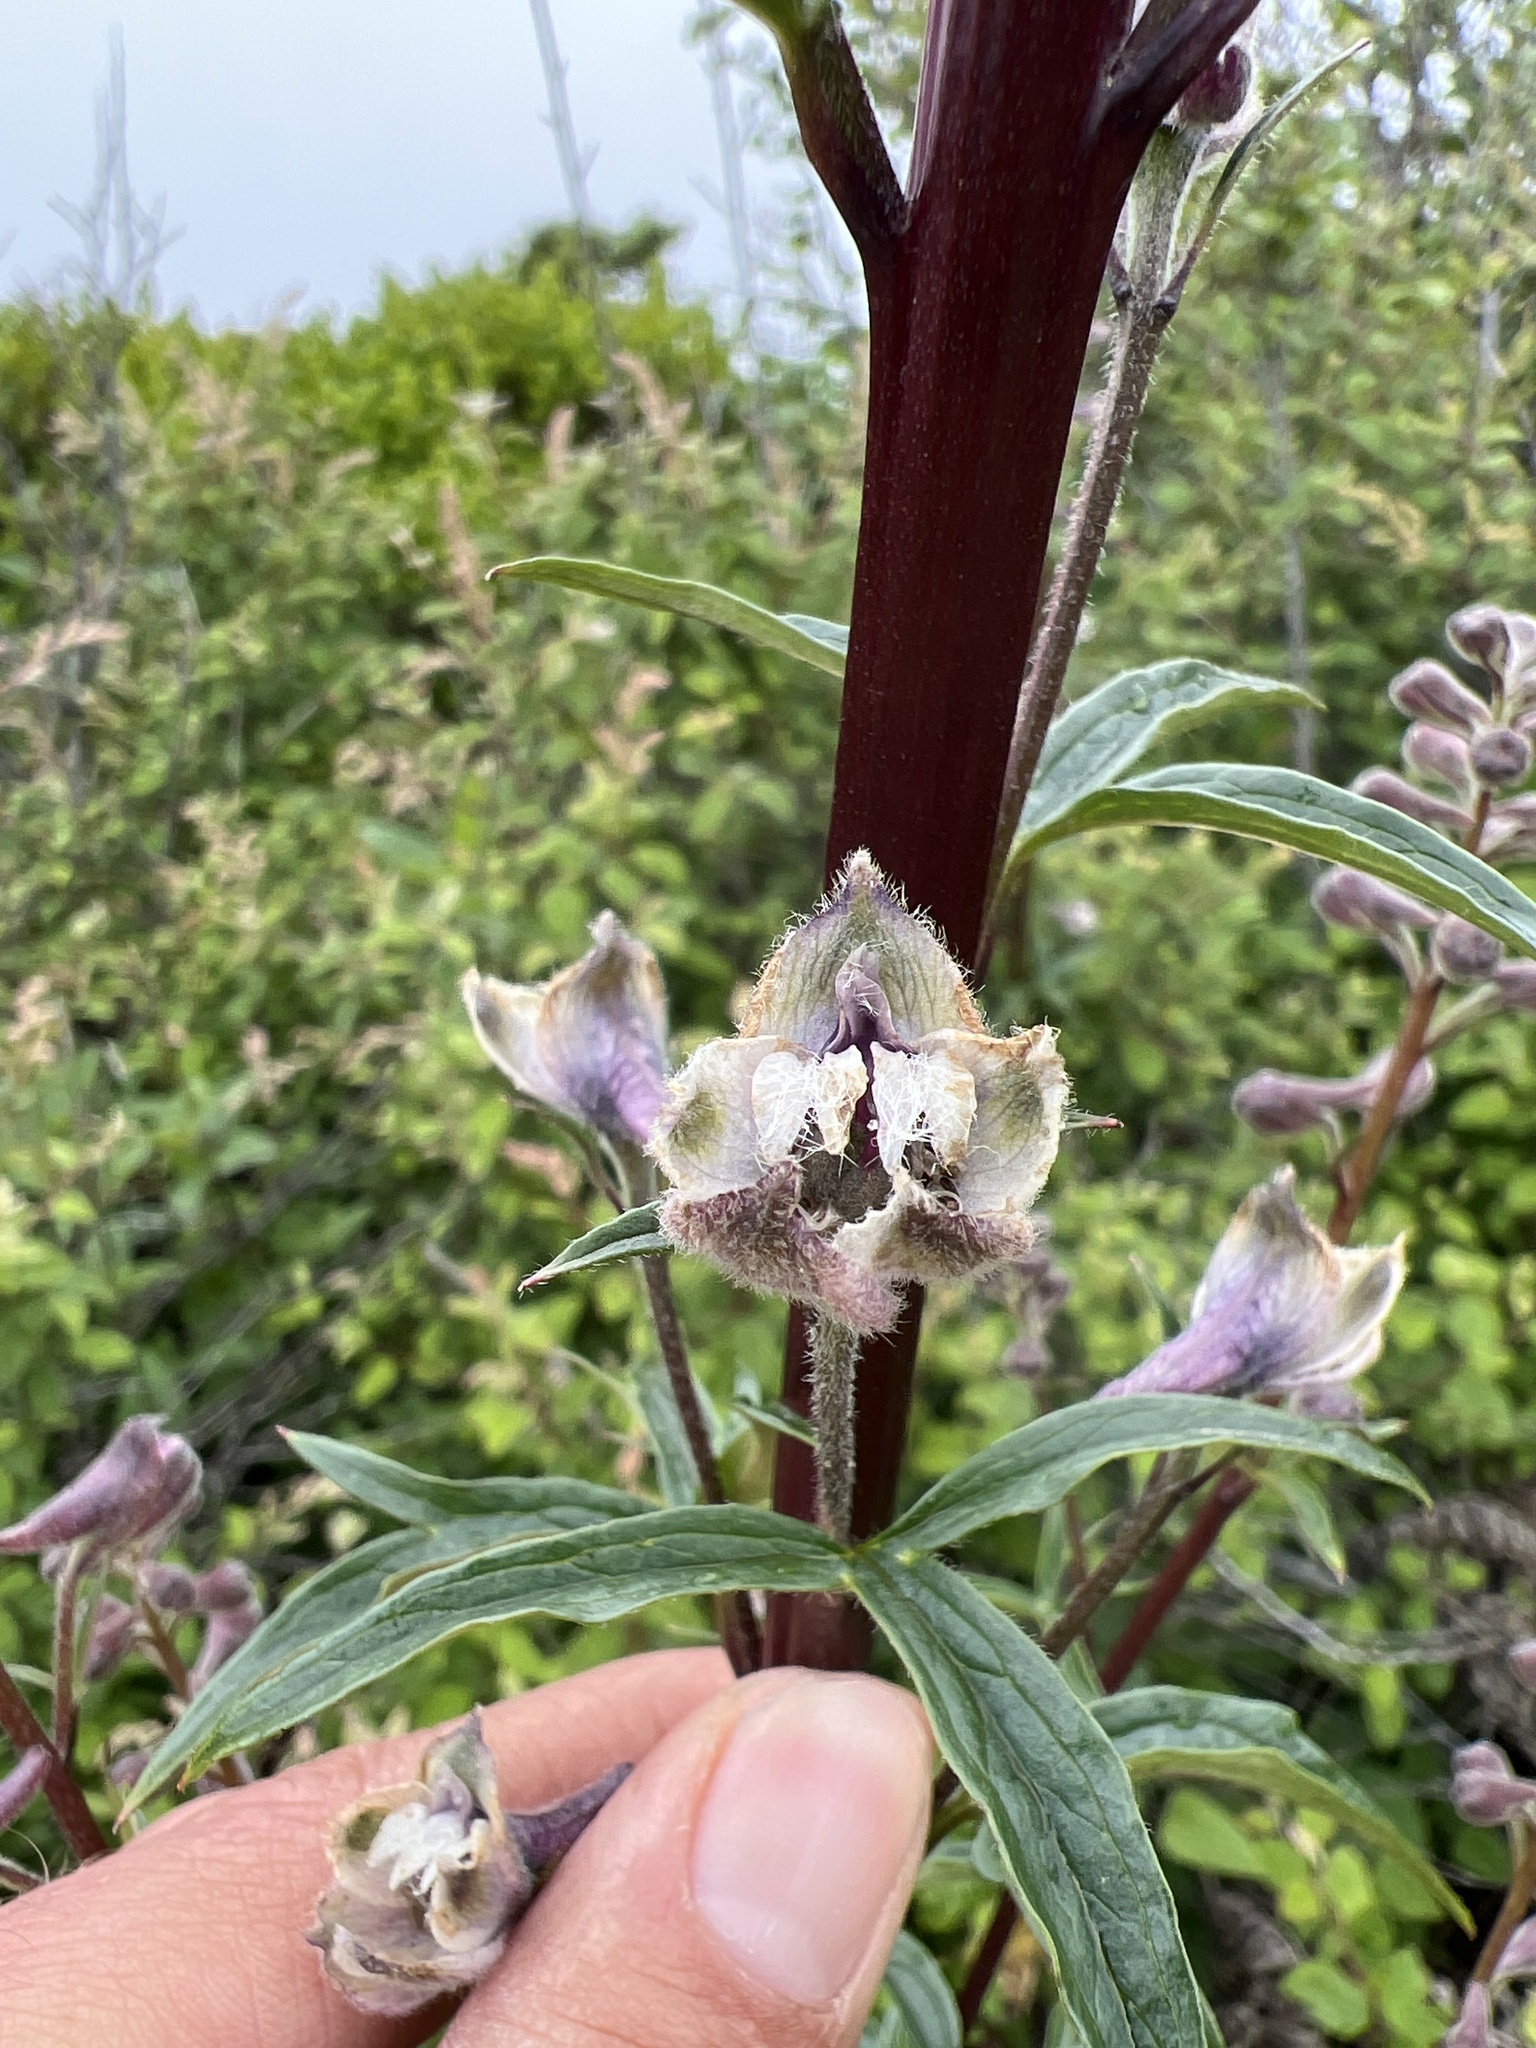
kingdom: Plantae
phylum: Tracheophyta
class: Magnoliopsida
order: Ranunculales
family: Ranunculaceae
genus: Delphinium
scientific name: Delphinium californicum
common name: California larkspur
